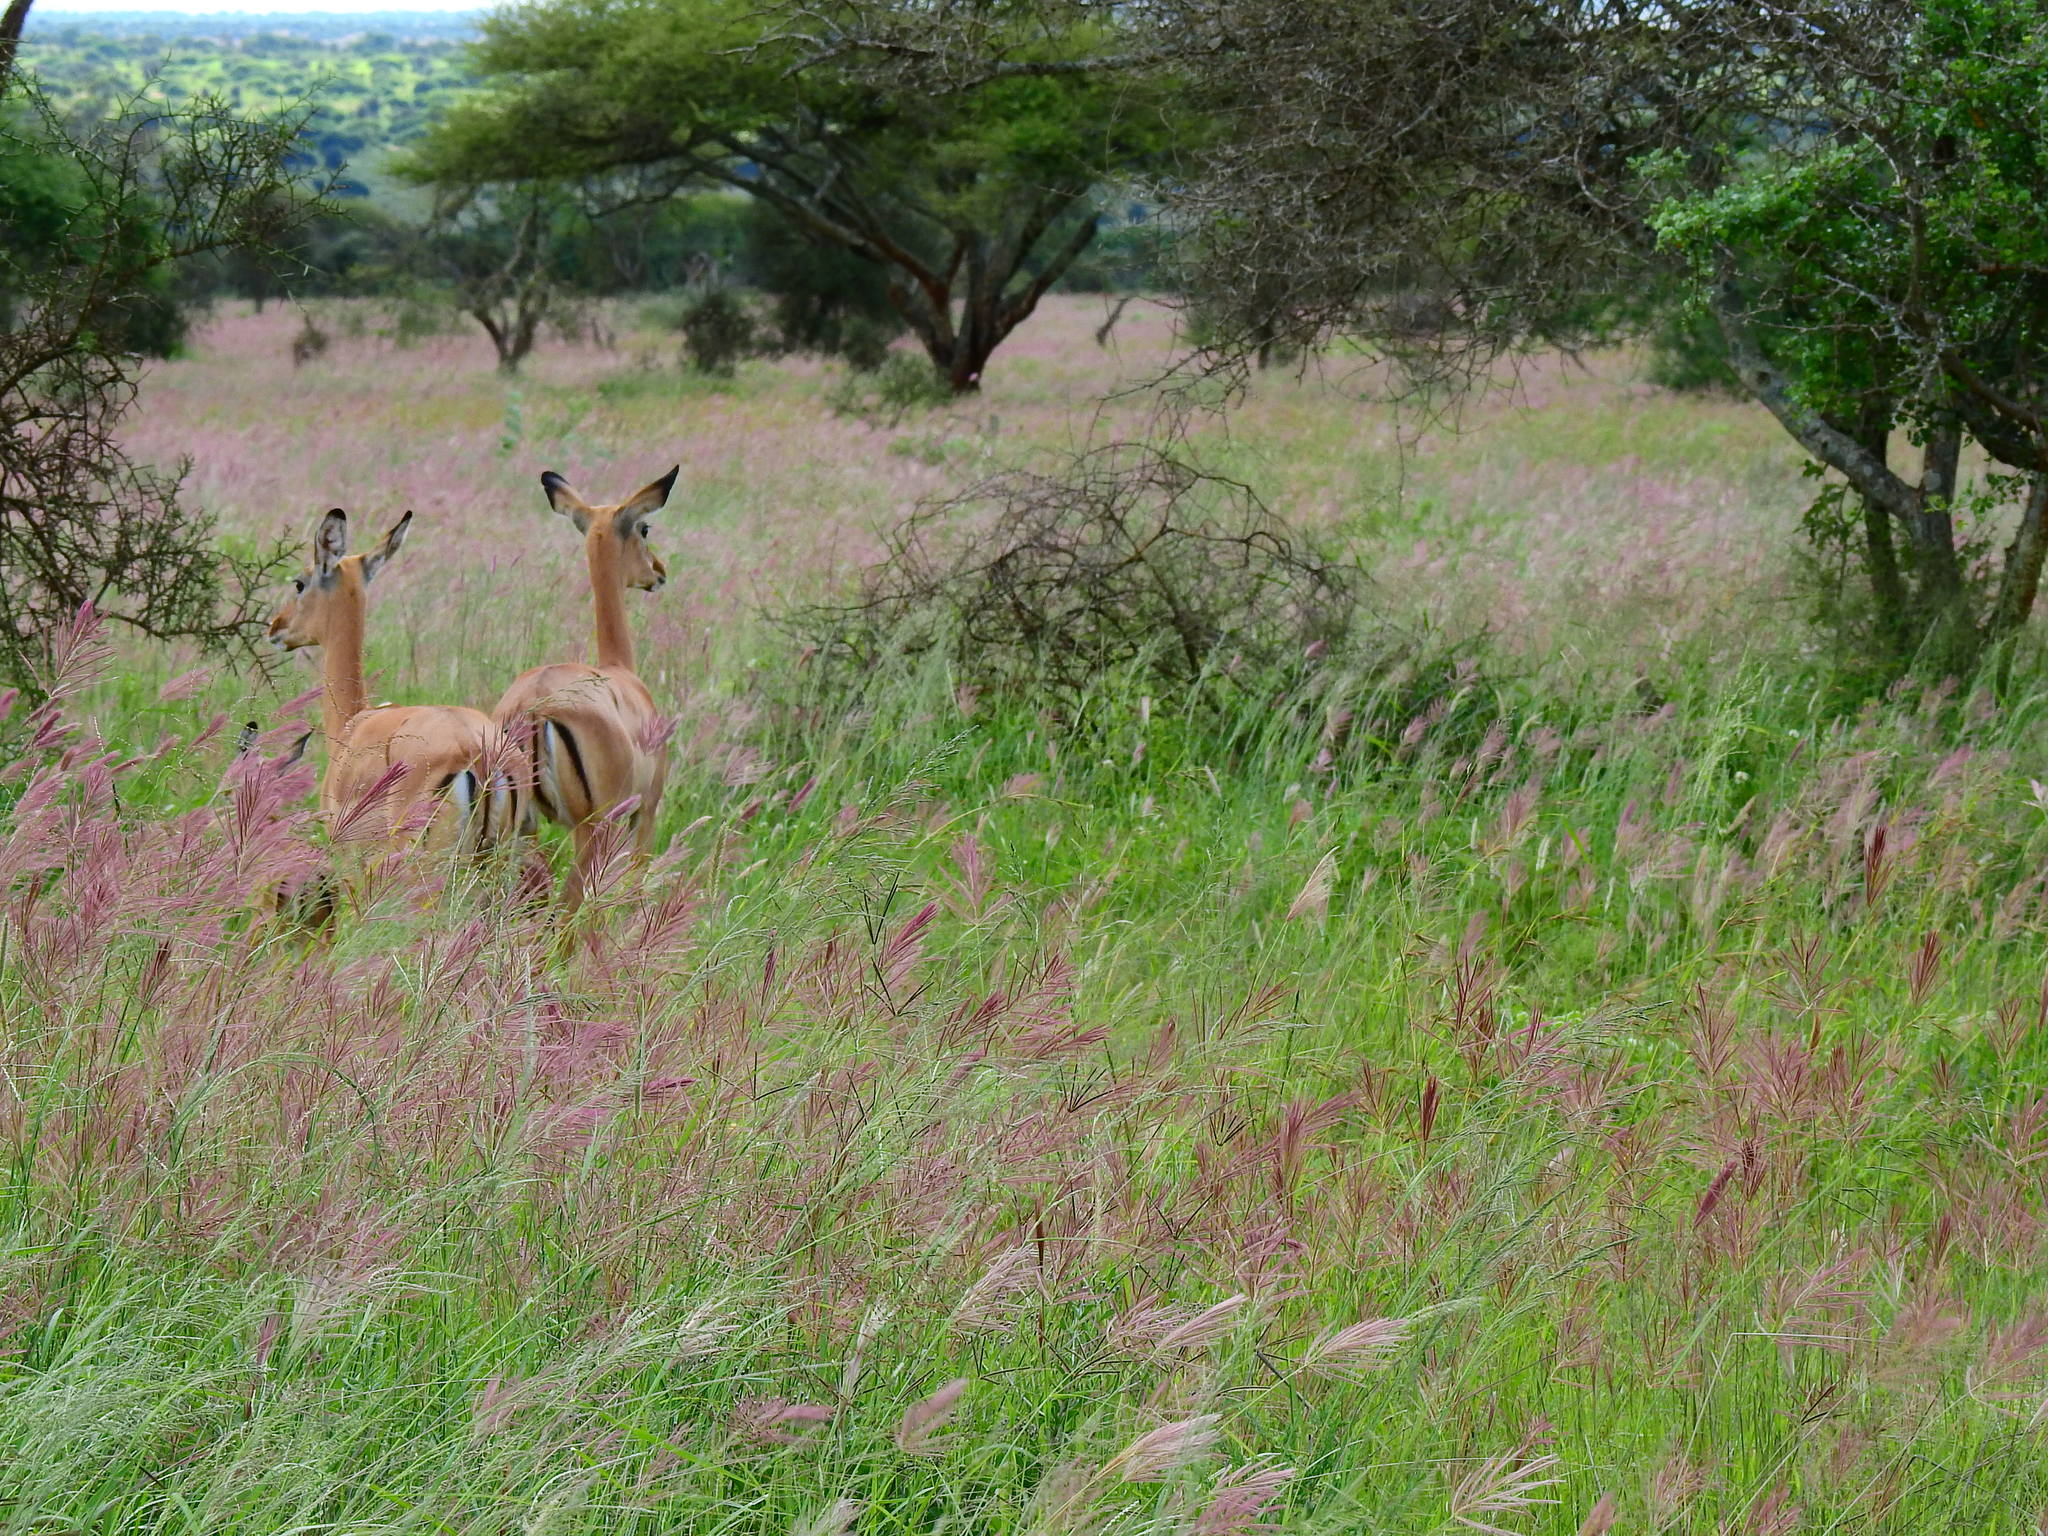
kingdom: Animalia
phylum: Chordata
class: Mammalia
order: Artiodactyla
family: Bovidae
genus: Aepyceros
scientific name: Aepyceros melampus
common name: Impala
